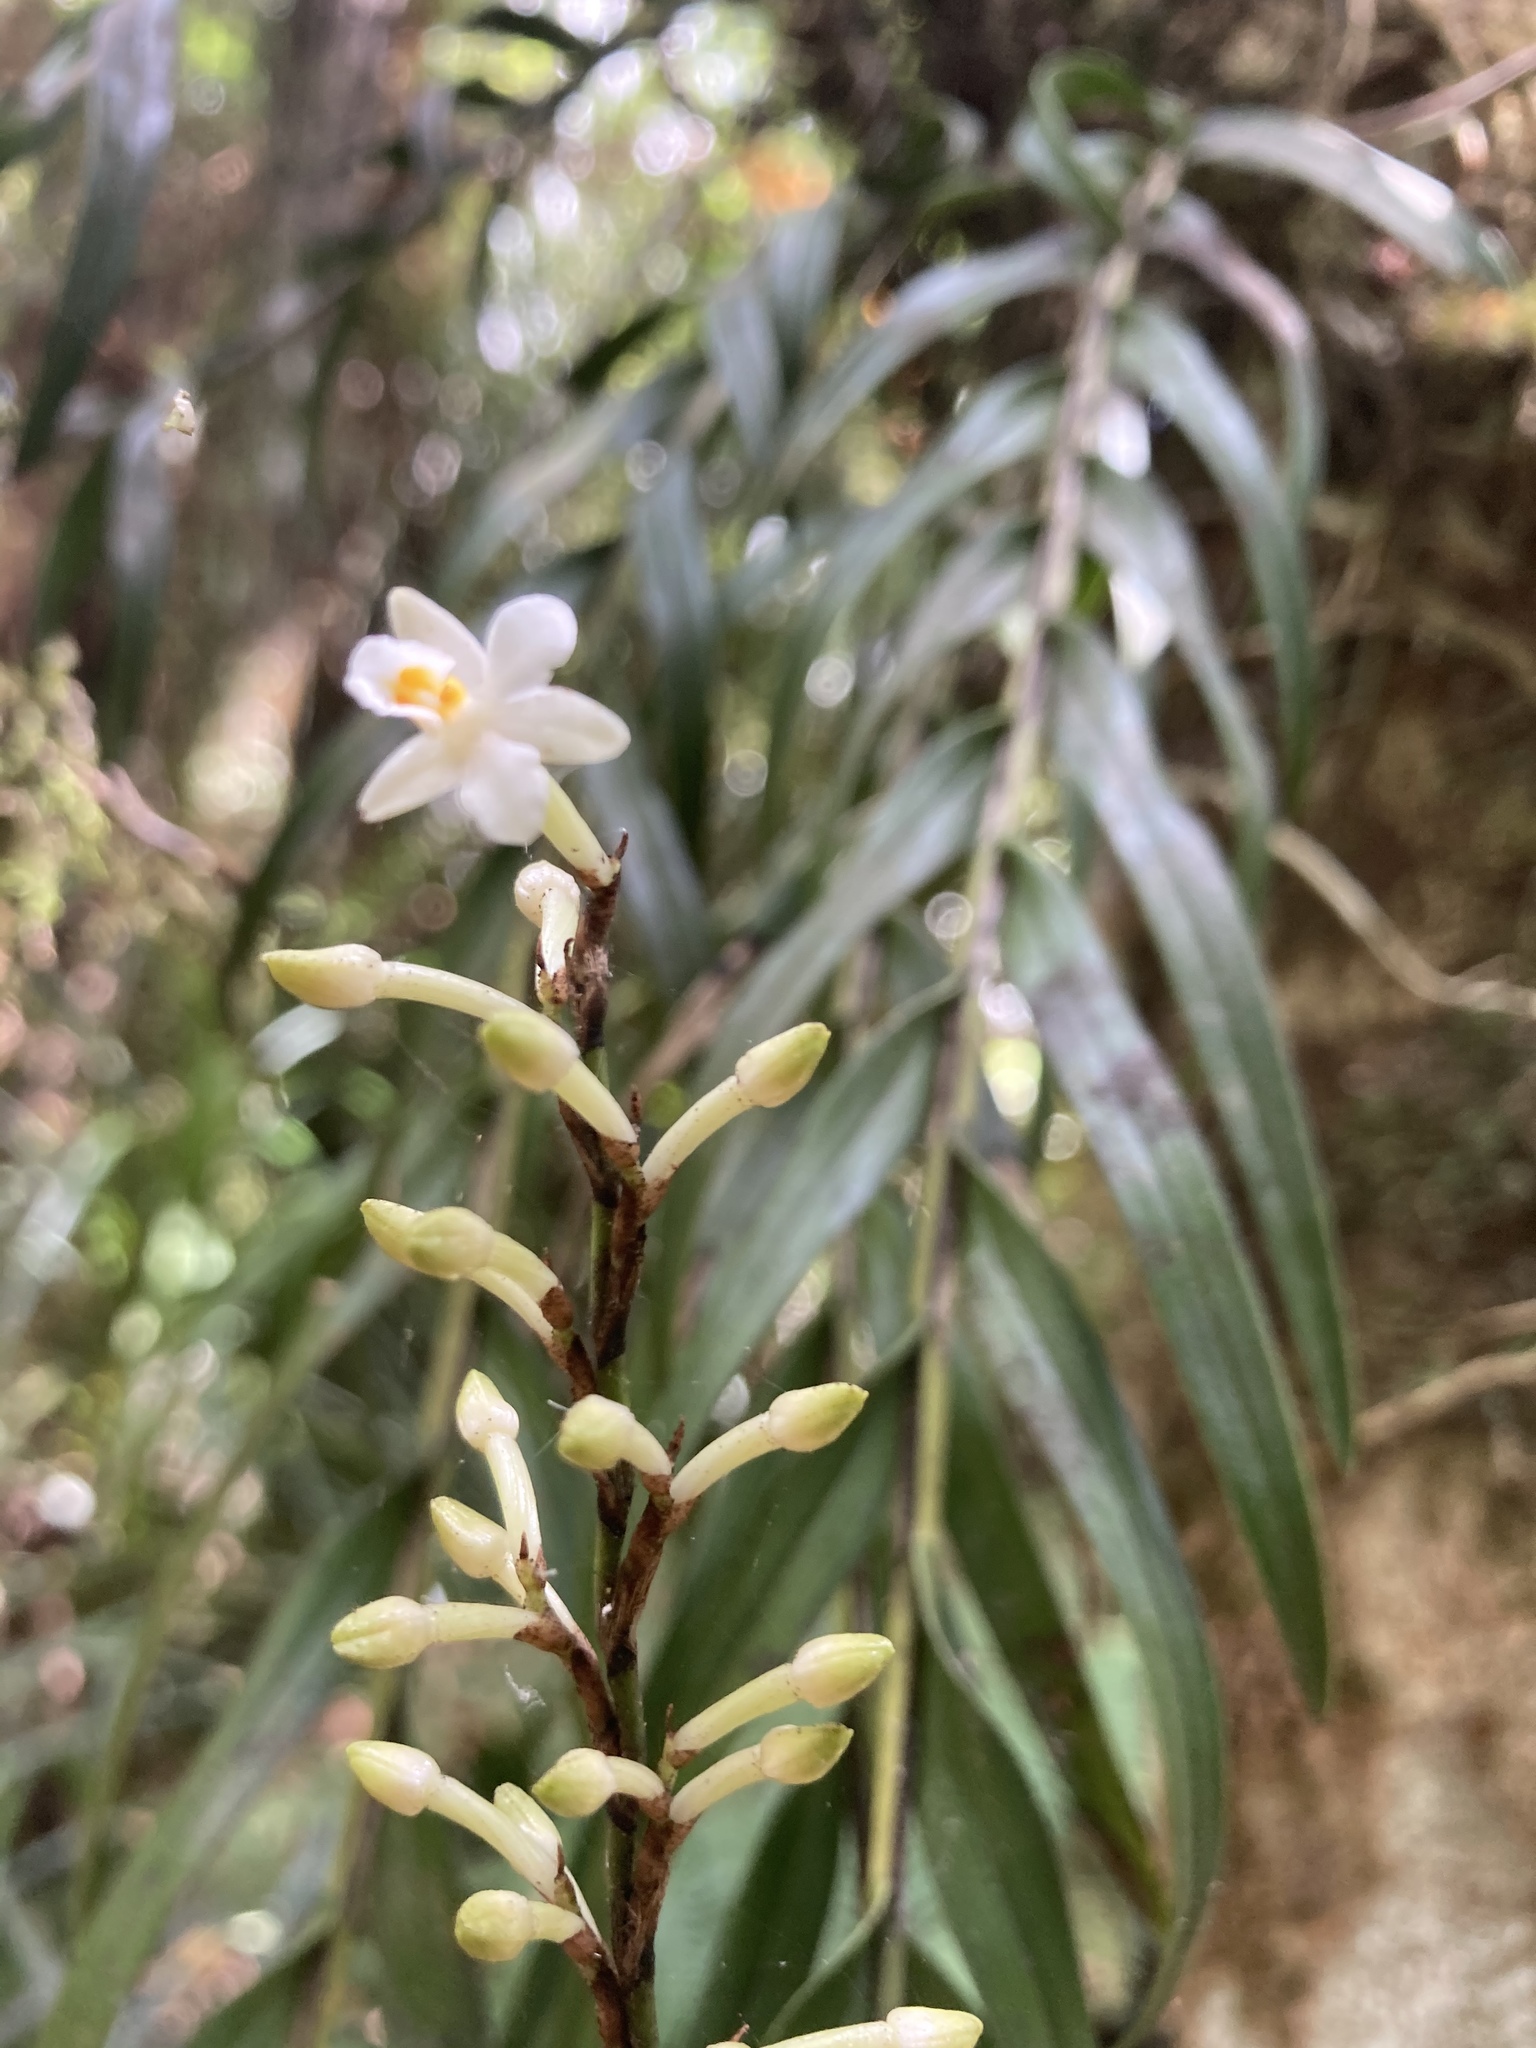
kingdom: Plantae
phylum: Tracheophyta
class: Liliopsida
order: Asparagales
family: Orchidaceae
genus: Earina
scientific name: Earina autumnalis
